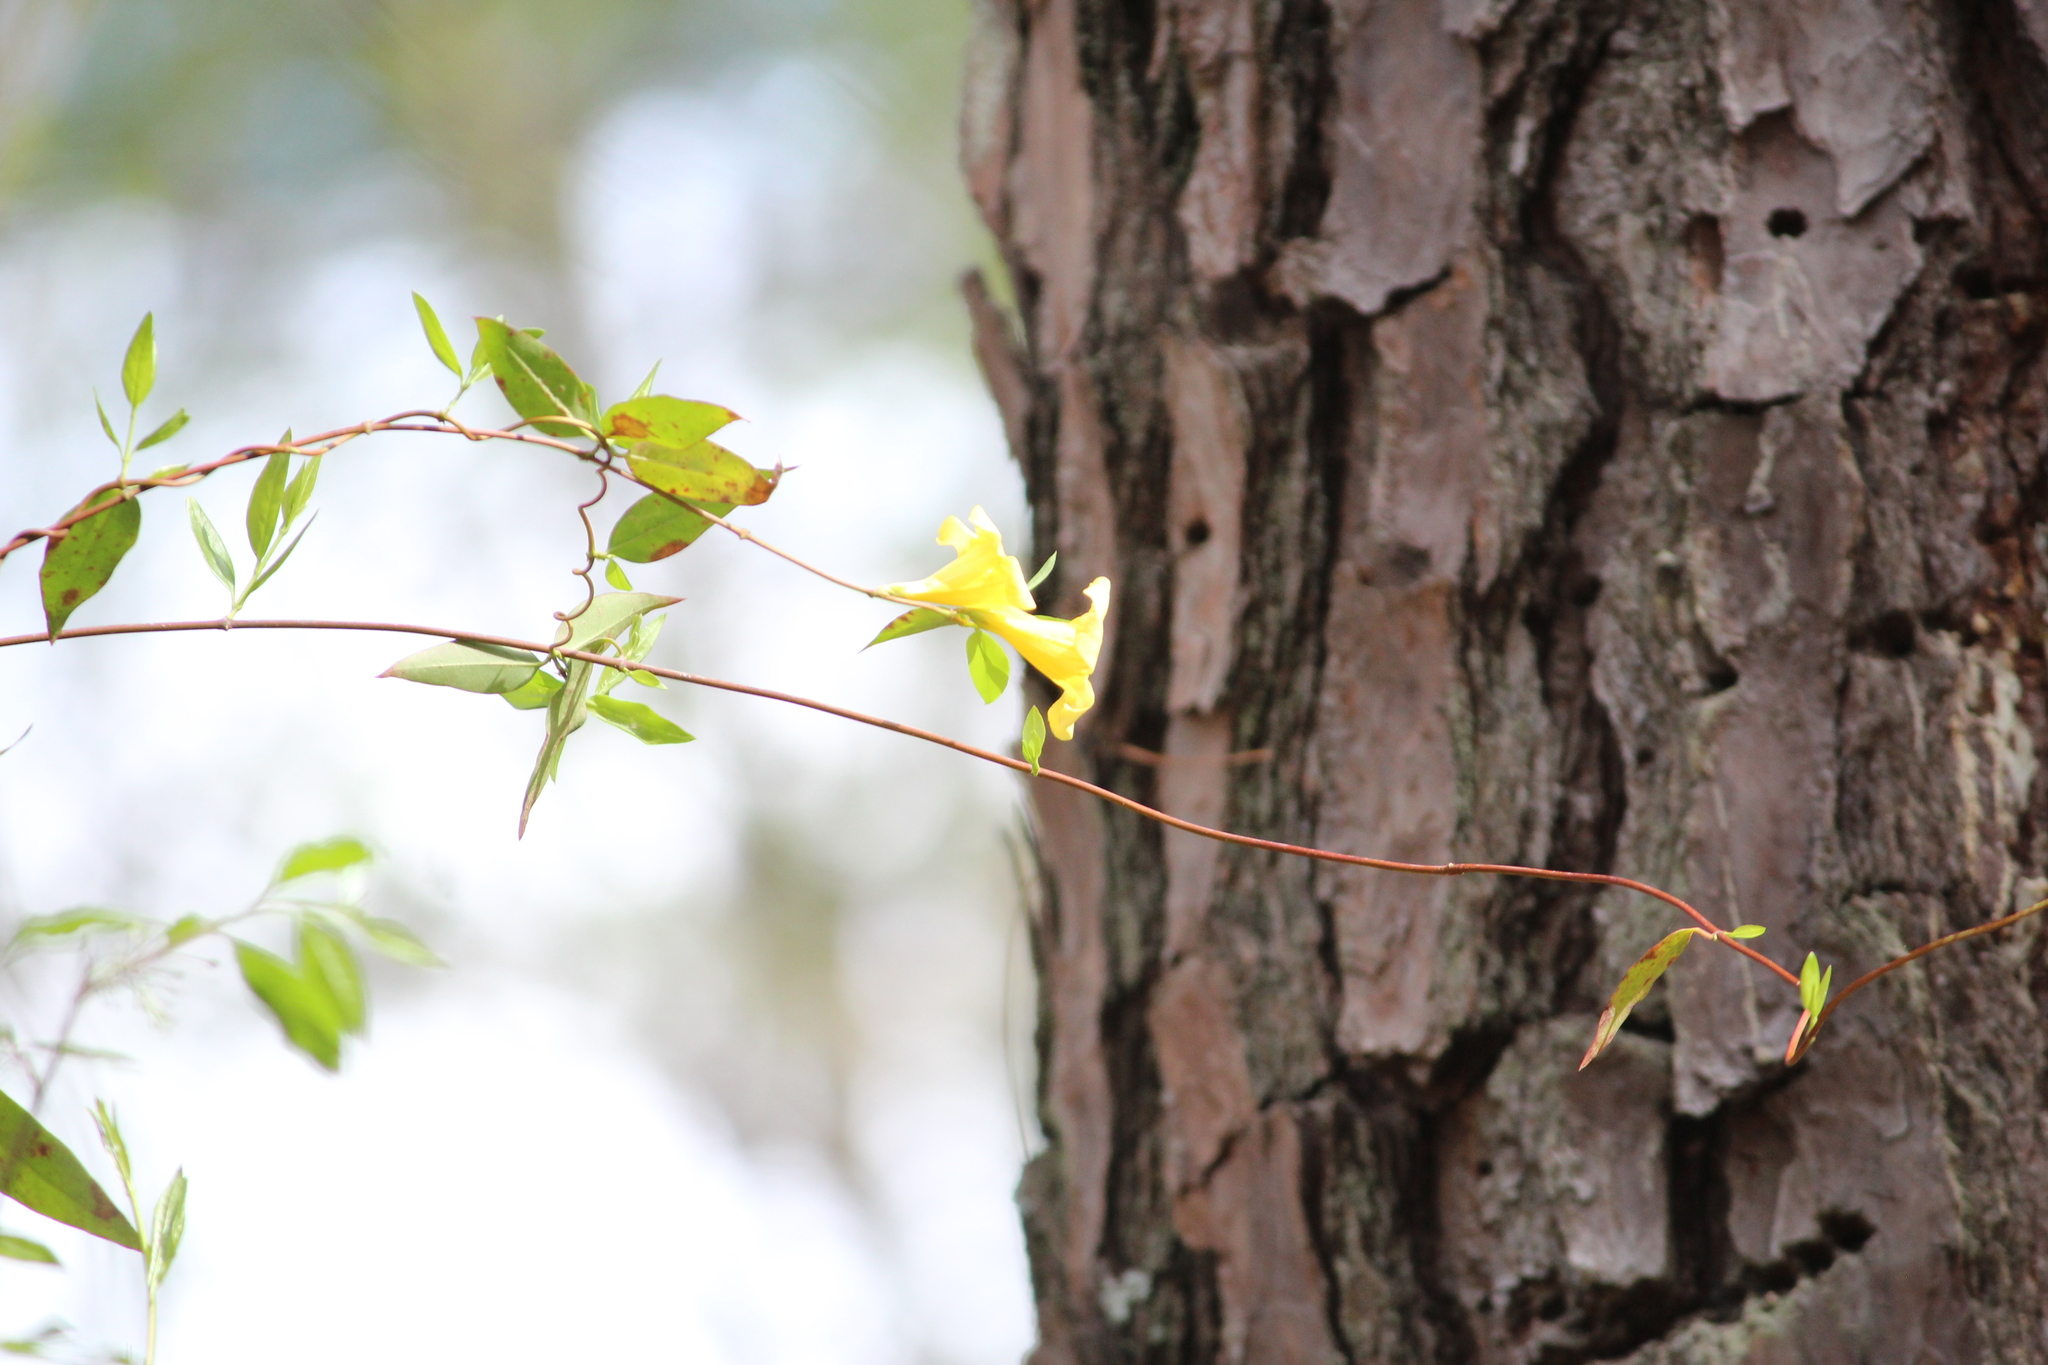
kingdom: Plantae
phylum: Tracheophyta
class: Magnoliopsida
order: Gentianales
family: Gelsemiaceae
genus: Gelsemium
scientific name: Gelsemium sempervirens
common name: Carolina-jasmine
